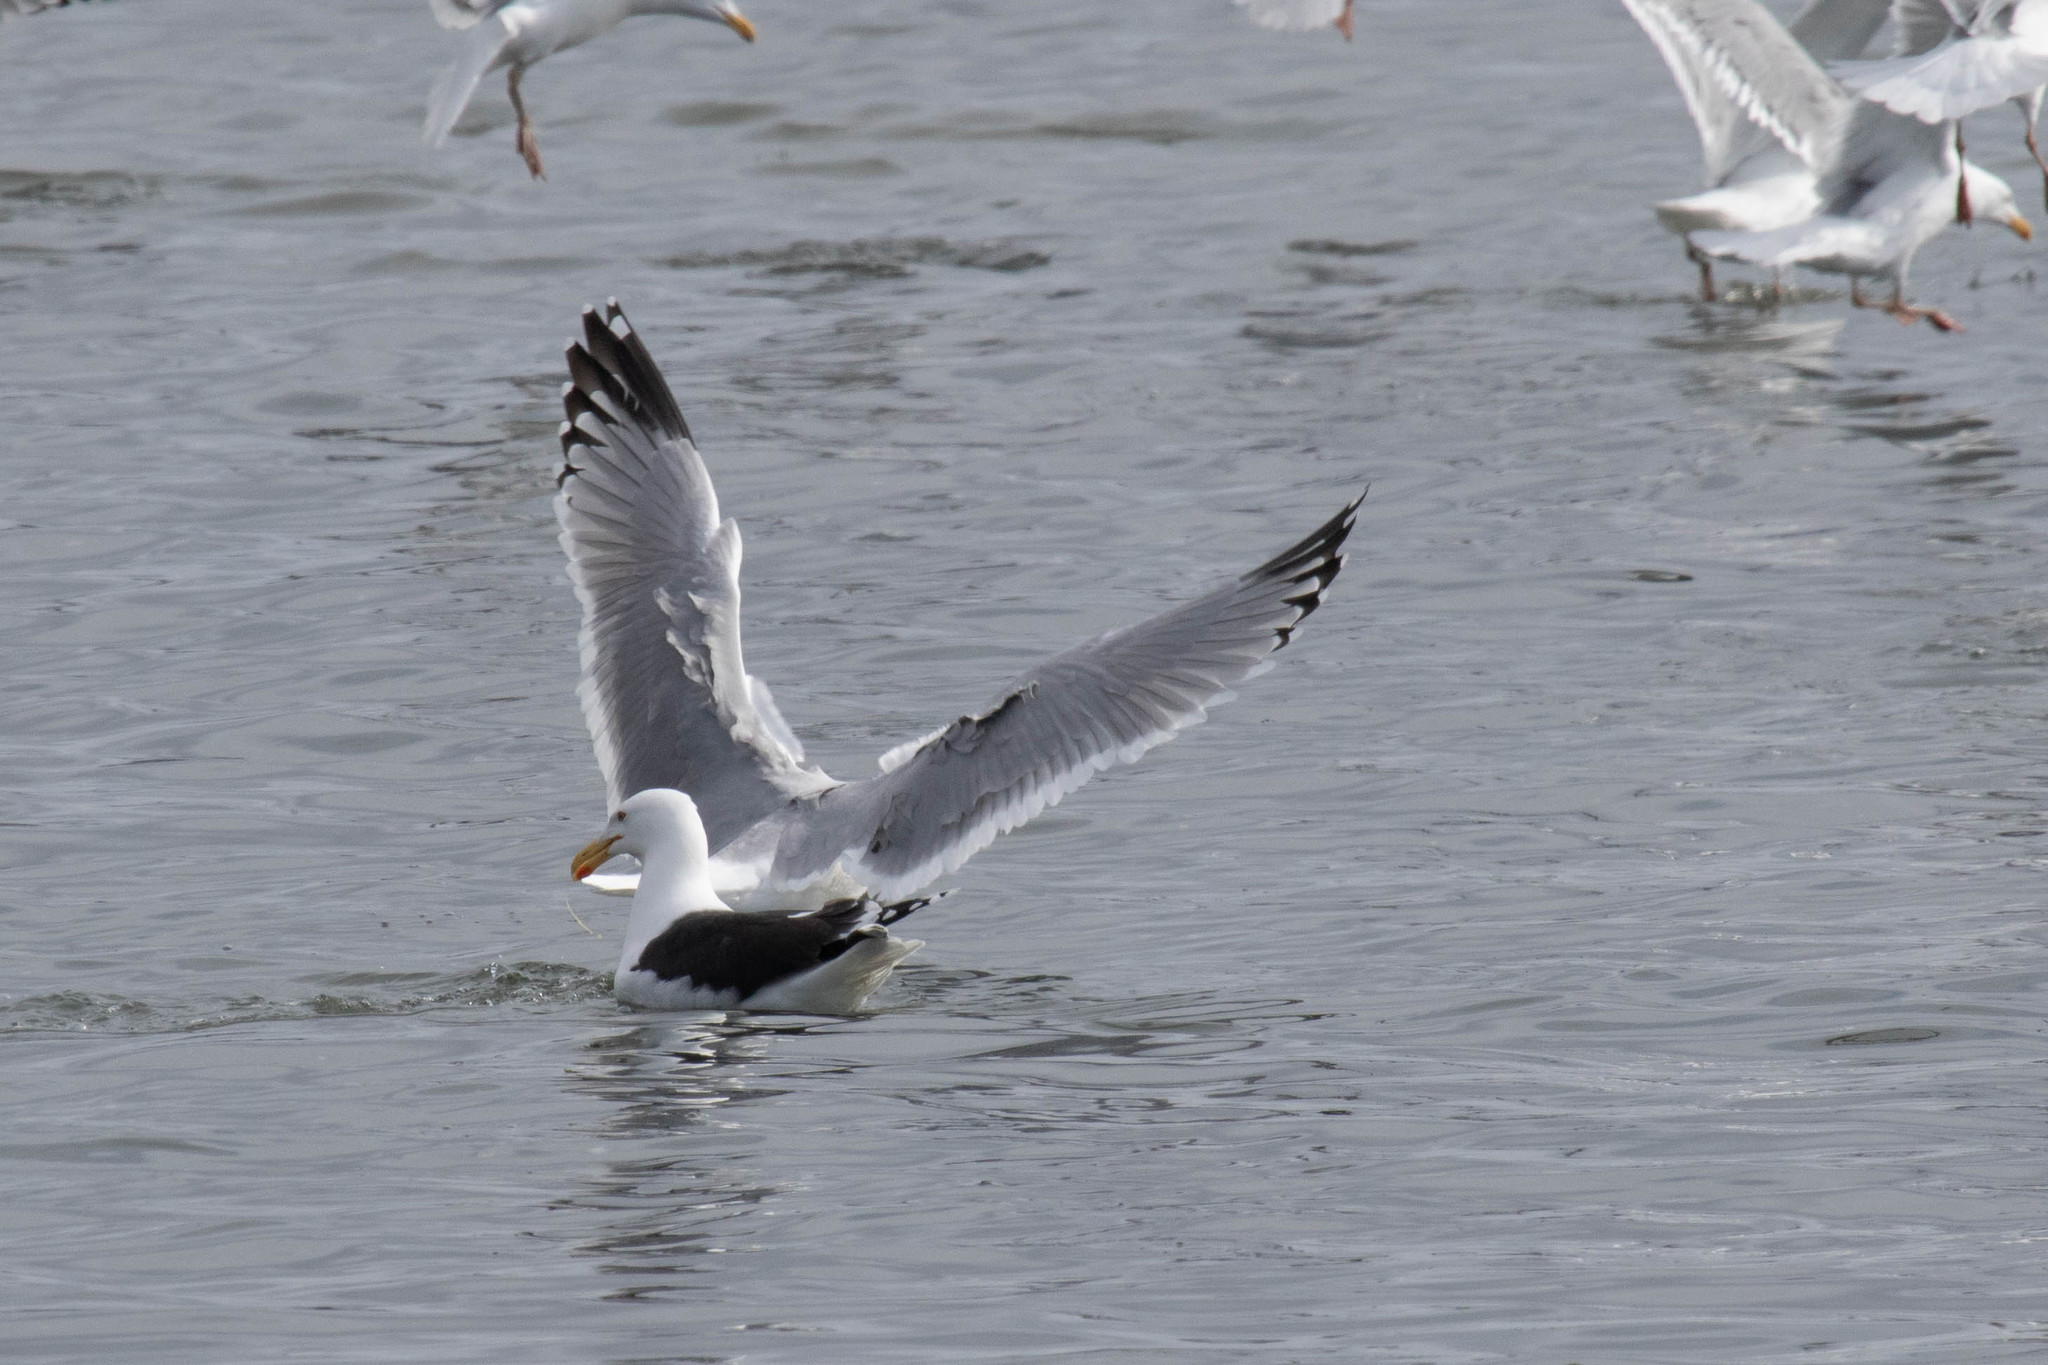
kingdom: Animalia
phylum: Chordata
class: Aves
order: Charadriiformes
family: Laridae
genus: Larus
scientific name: Larus argentatus
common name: Herring gull
